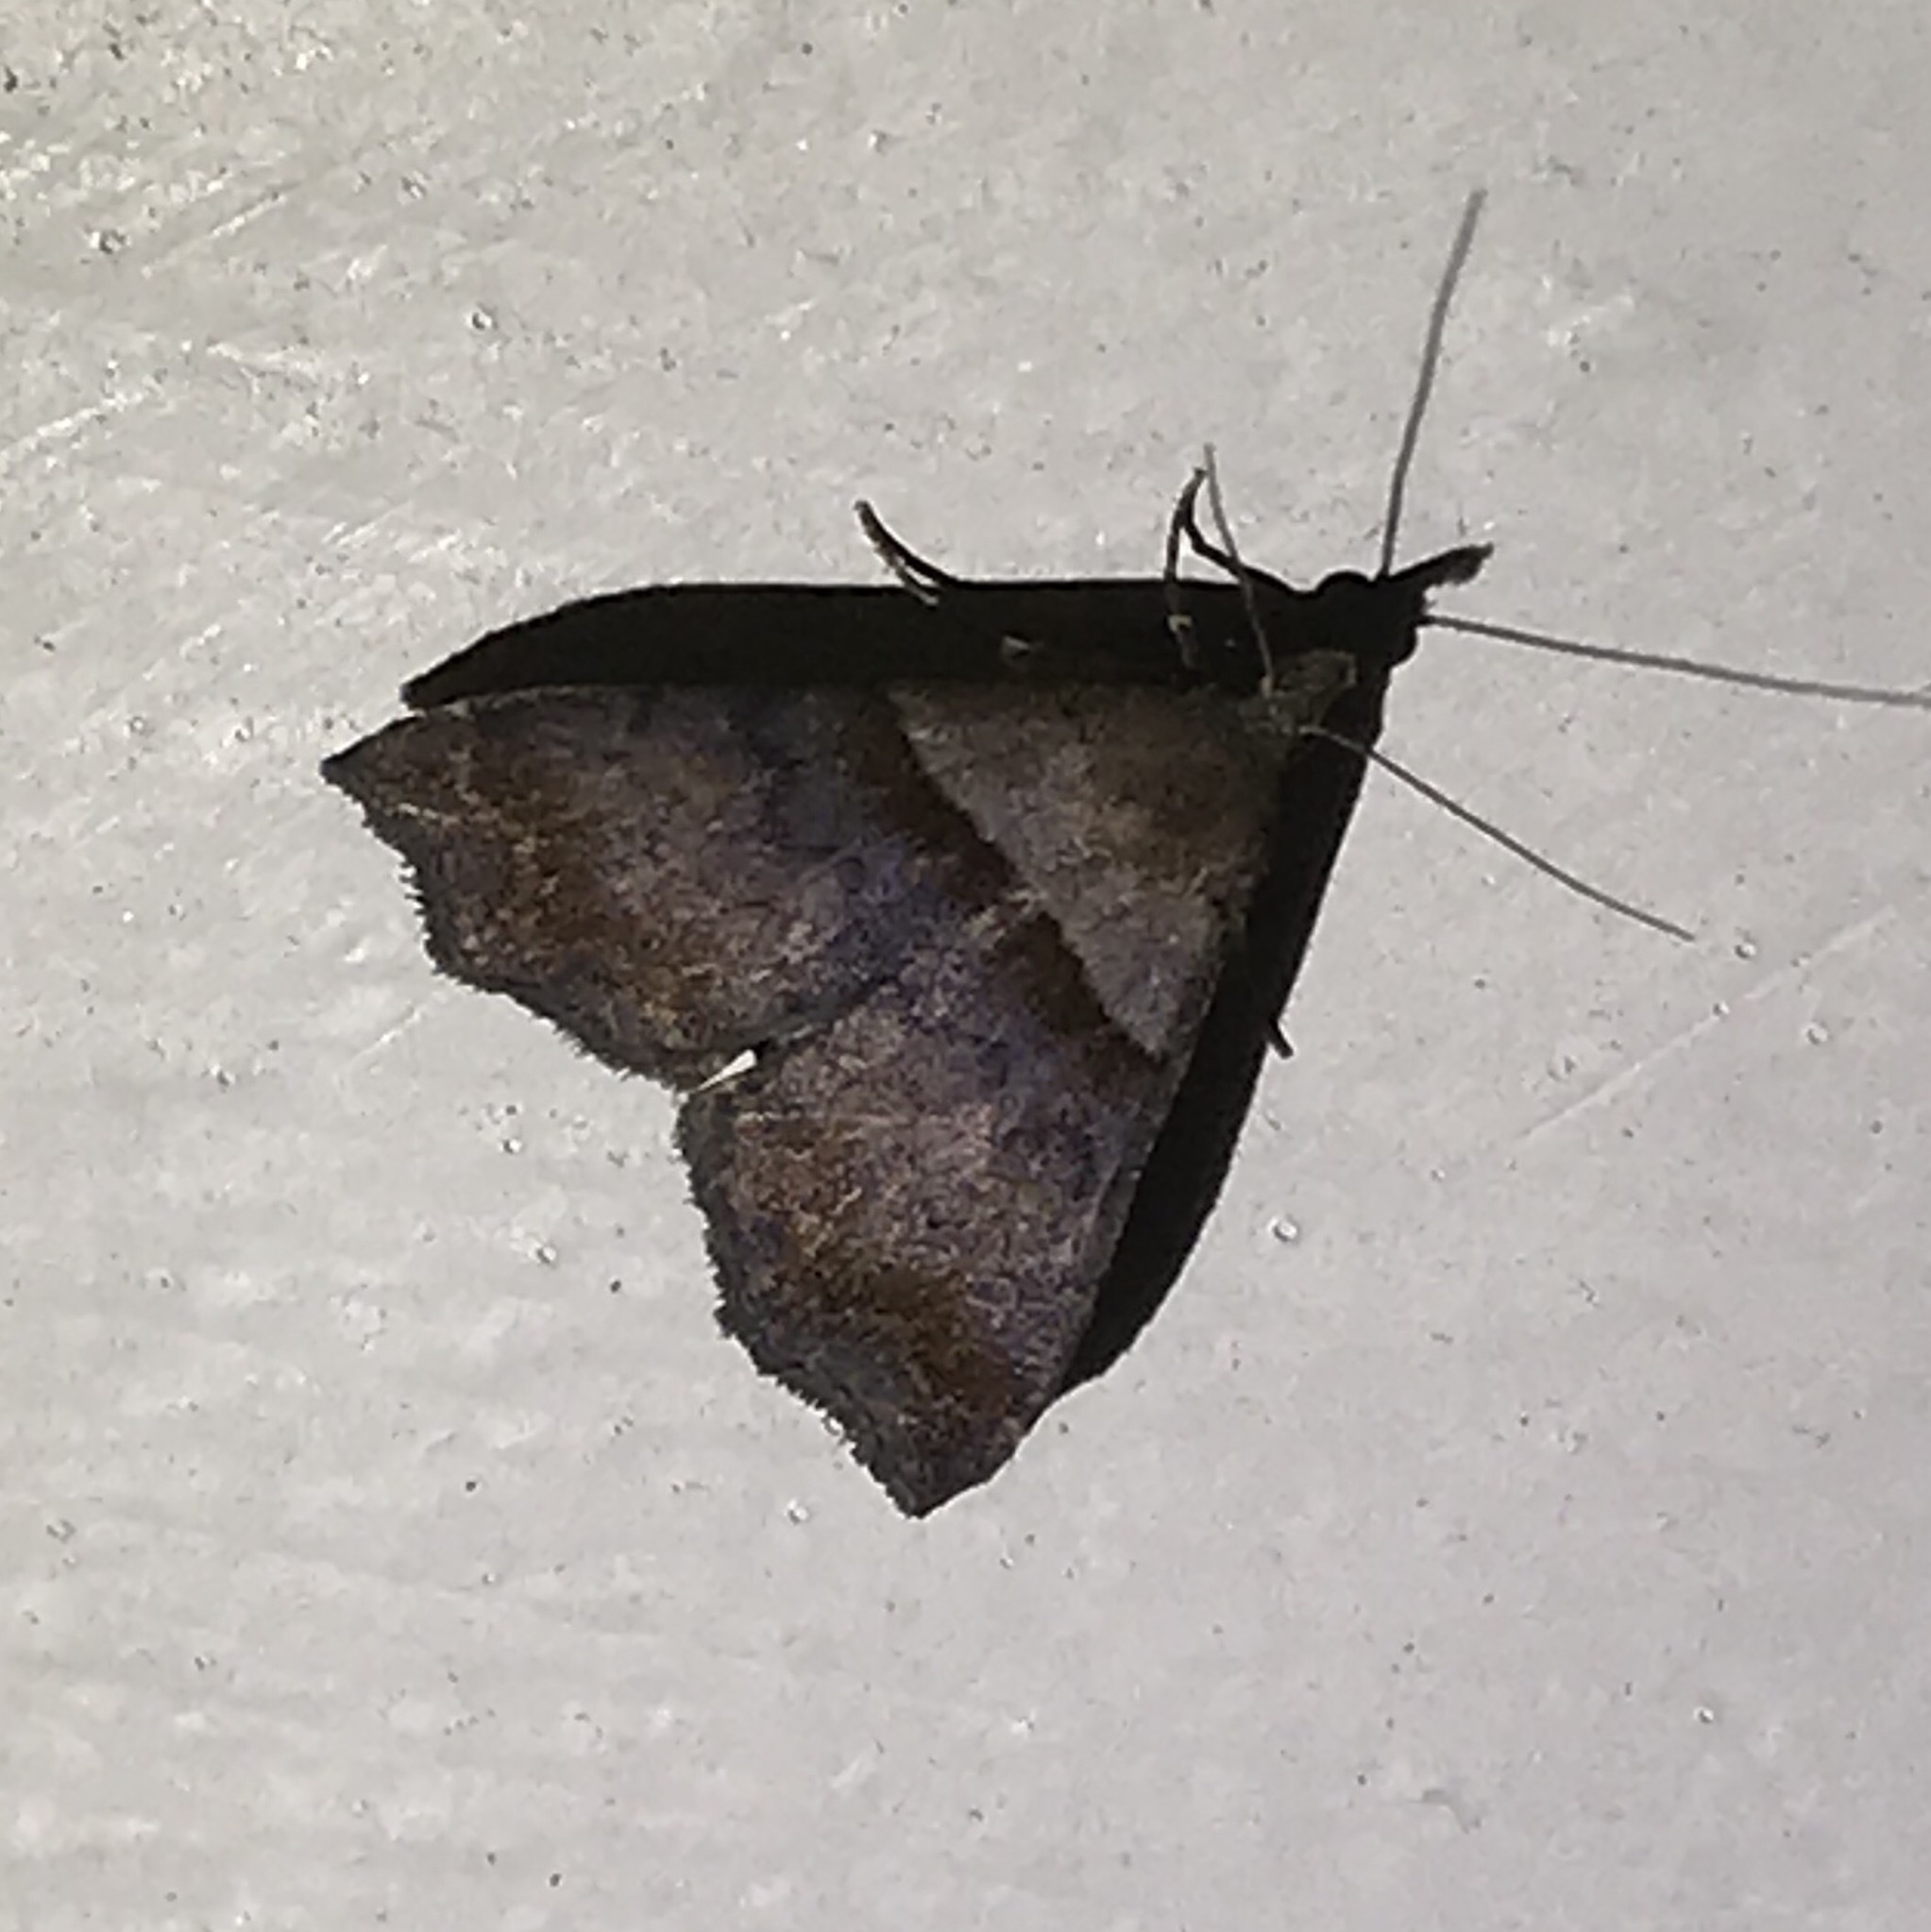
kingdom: Animalia
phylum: Arthropoda
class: Insecta
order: Lepidoptera
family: Erebidae
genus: Lascoria
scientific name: Lascoria ambigualis
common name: Ambiguous moth
